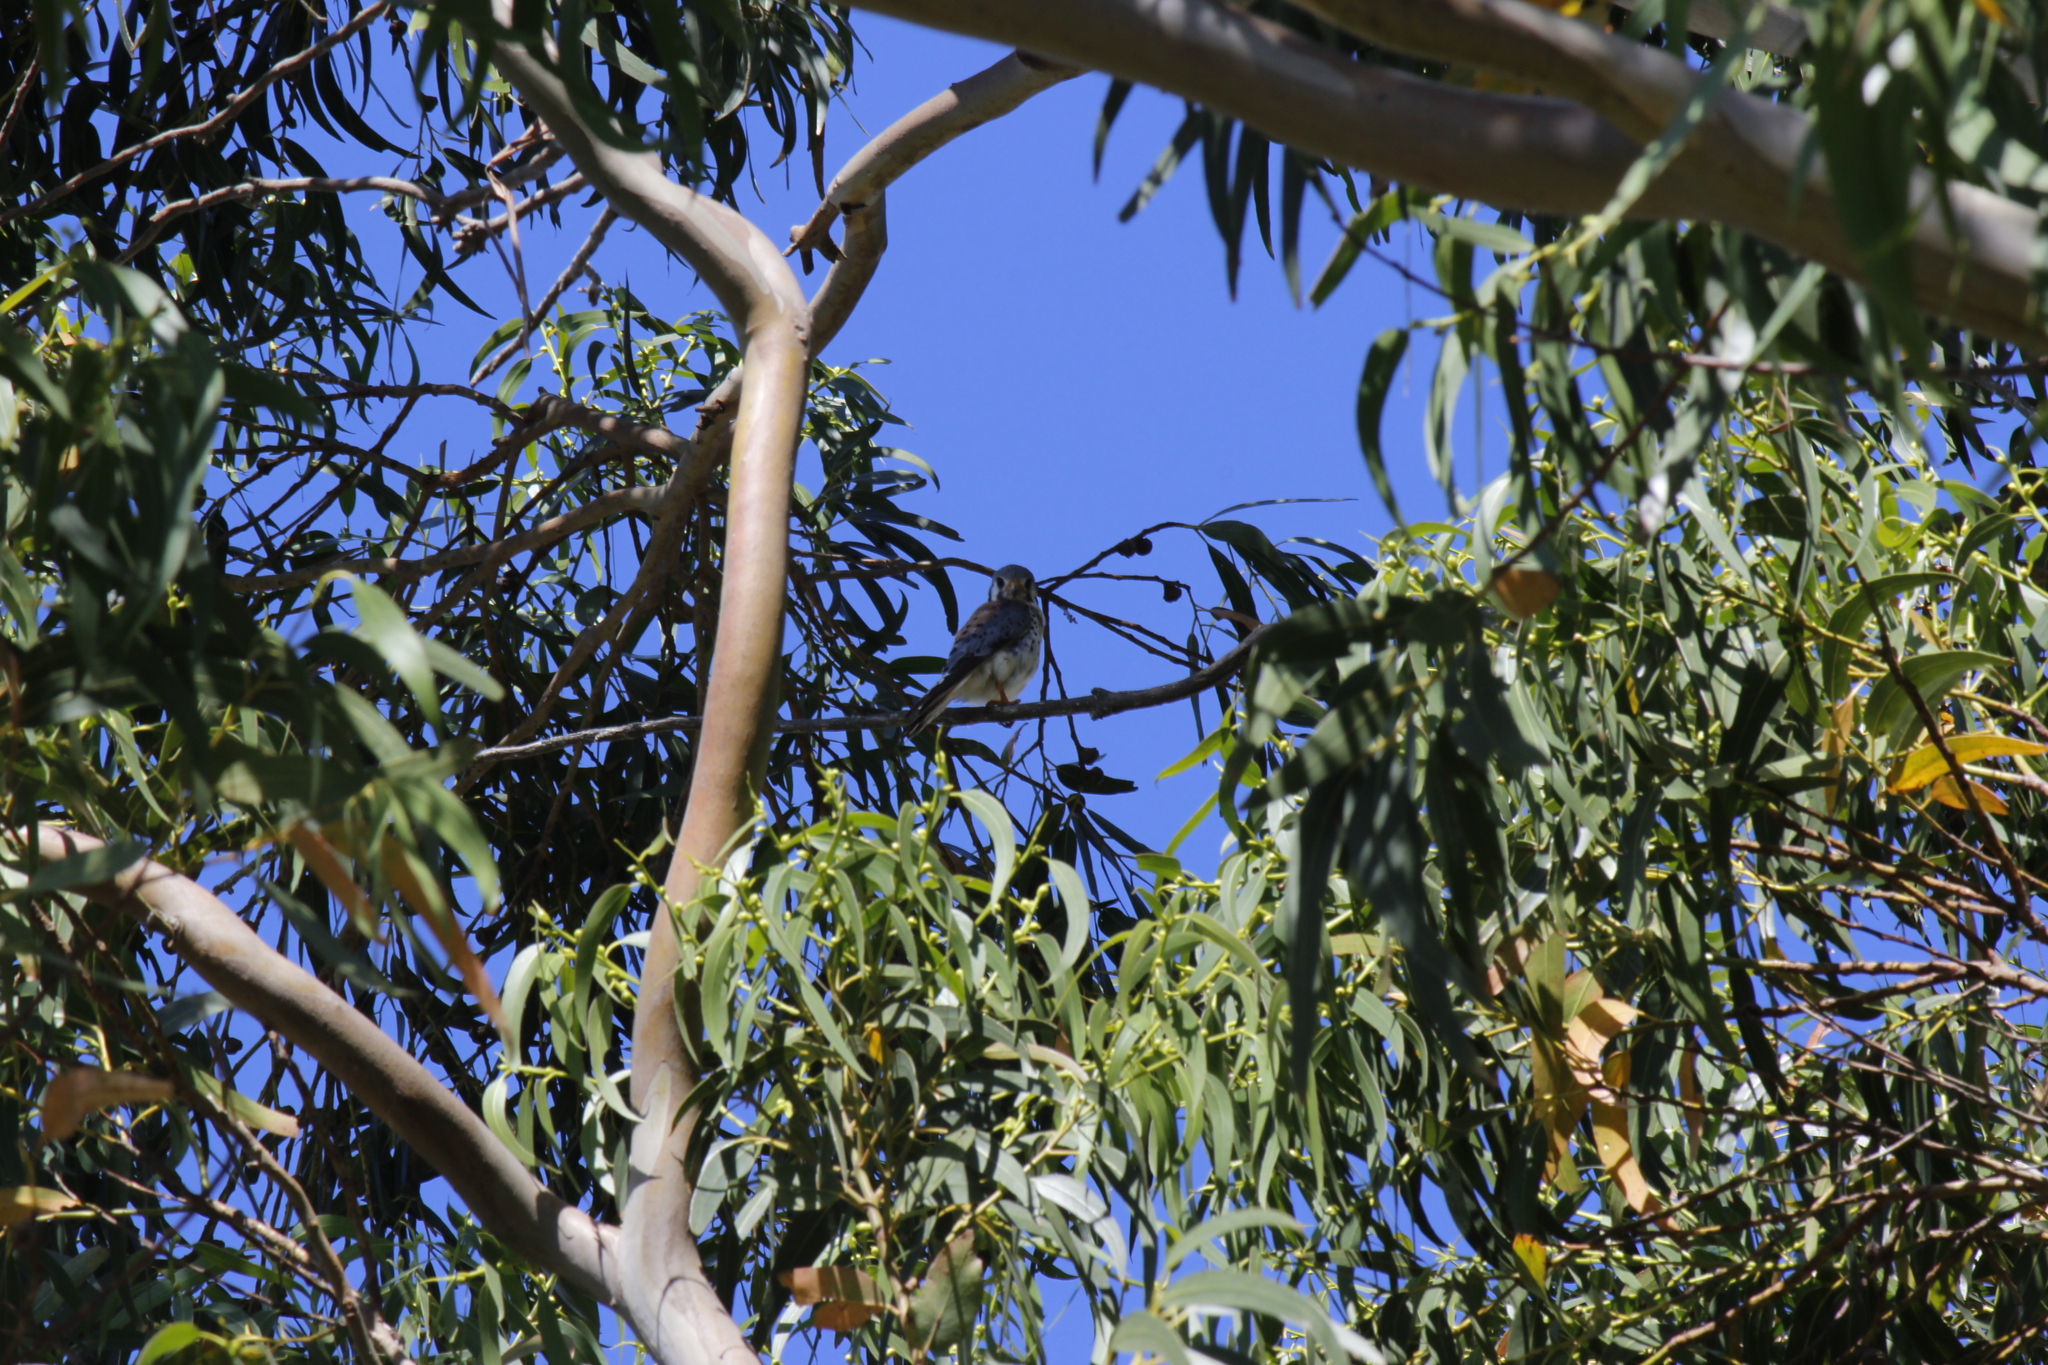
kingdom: Animalia
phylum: Chordata
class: Aves
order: Falconiformes
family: Falconidae
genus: Falco
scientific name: Falco sparverius
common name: American kestrel
